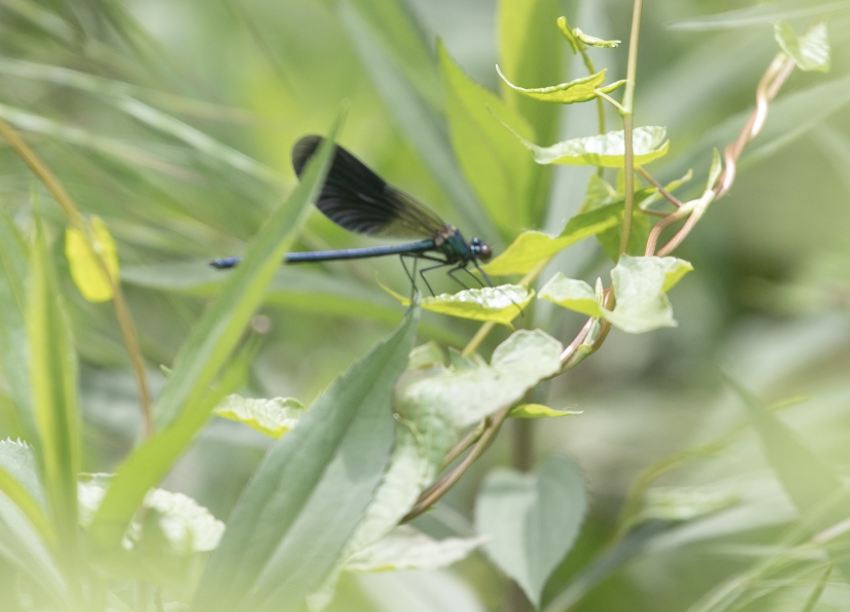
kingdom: Animalia
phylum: Arthropoda
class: Insecta
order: Odonata
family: Calopterygidae
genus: Calopteryx
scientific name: Calopteryx splendens
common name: Banded demoiselle
